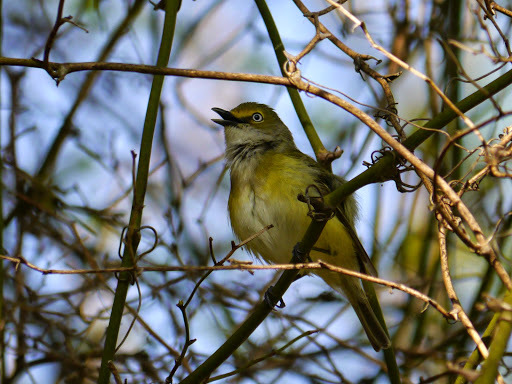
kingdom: Animalia
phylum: Chordata
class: Aves
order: Passeriformes
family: Vireonidae
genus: Vireo
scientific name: Vireo griseus
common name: White-eyed vireo
